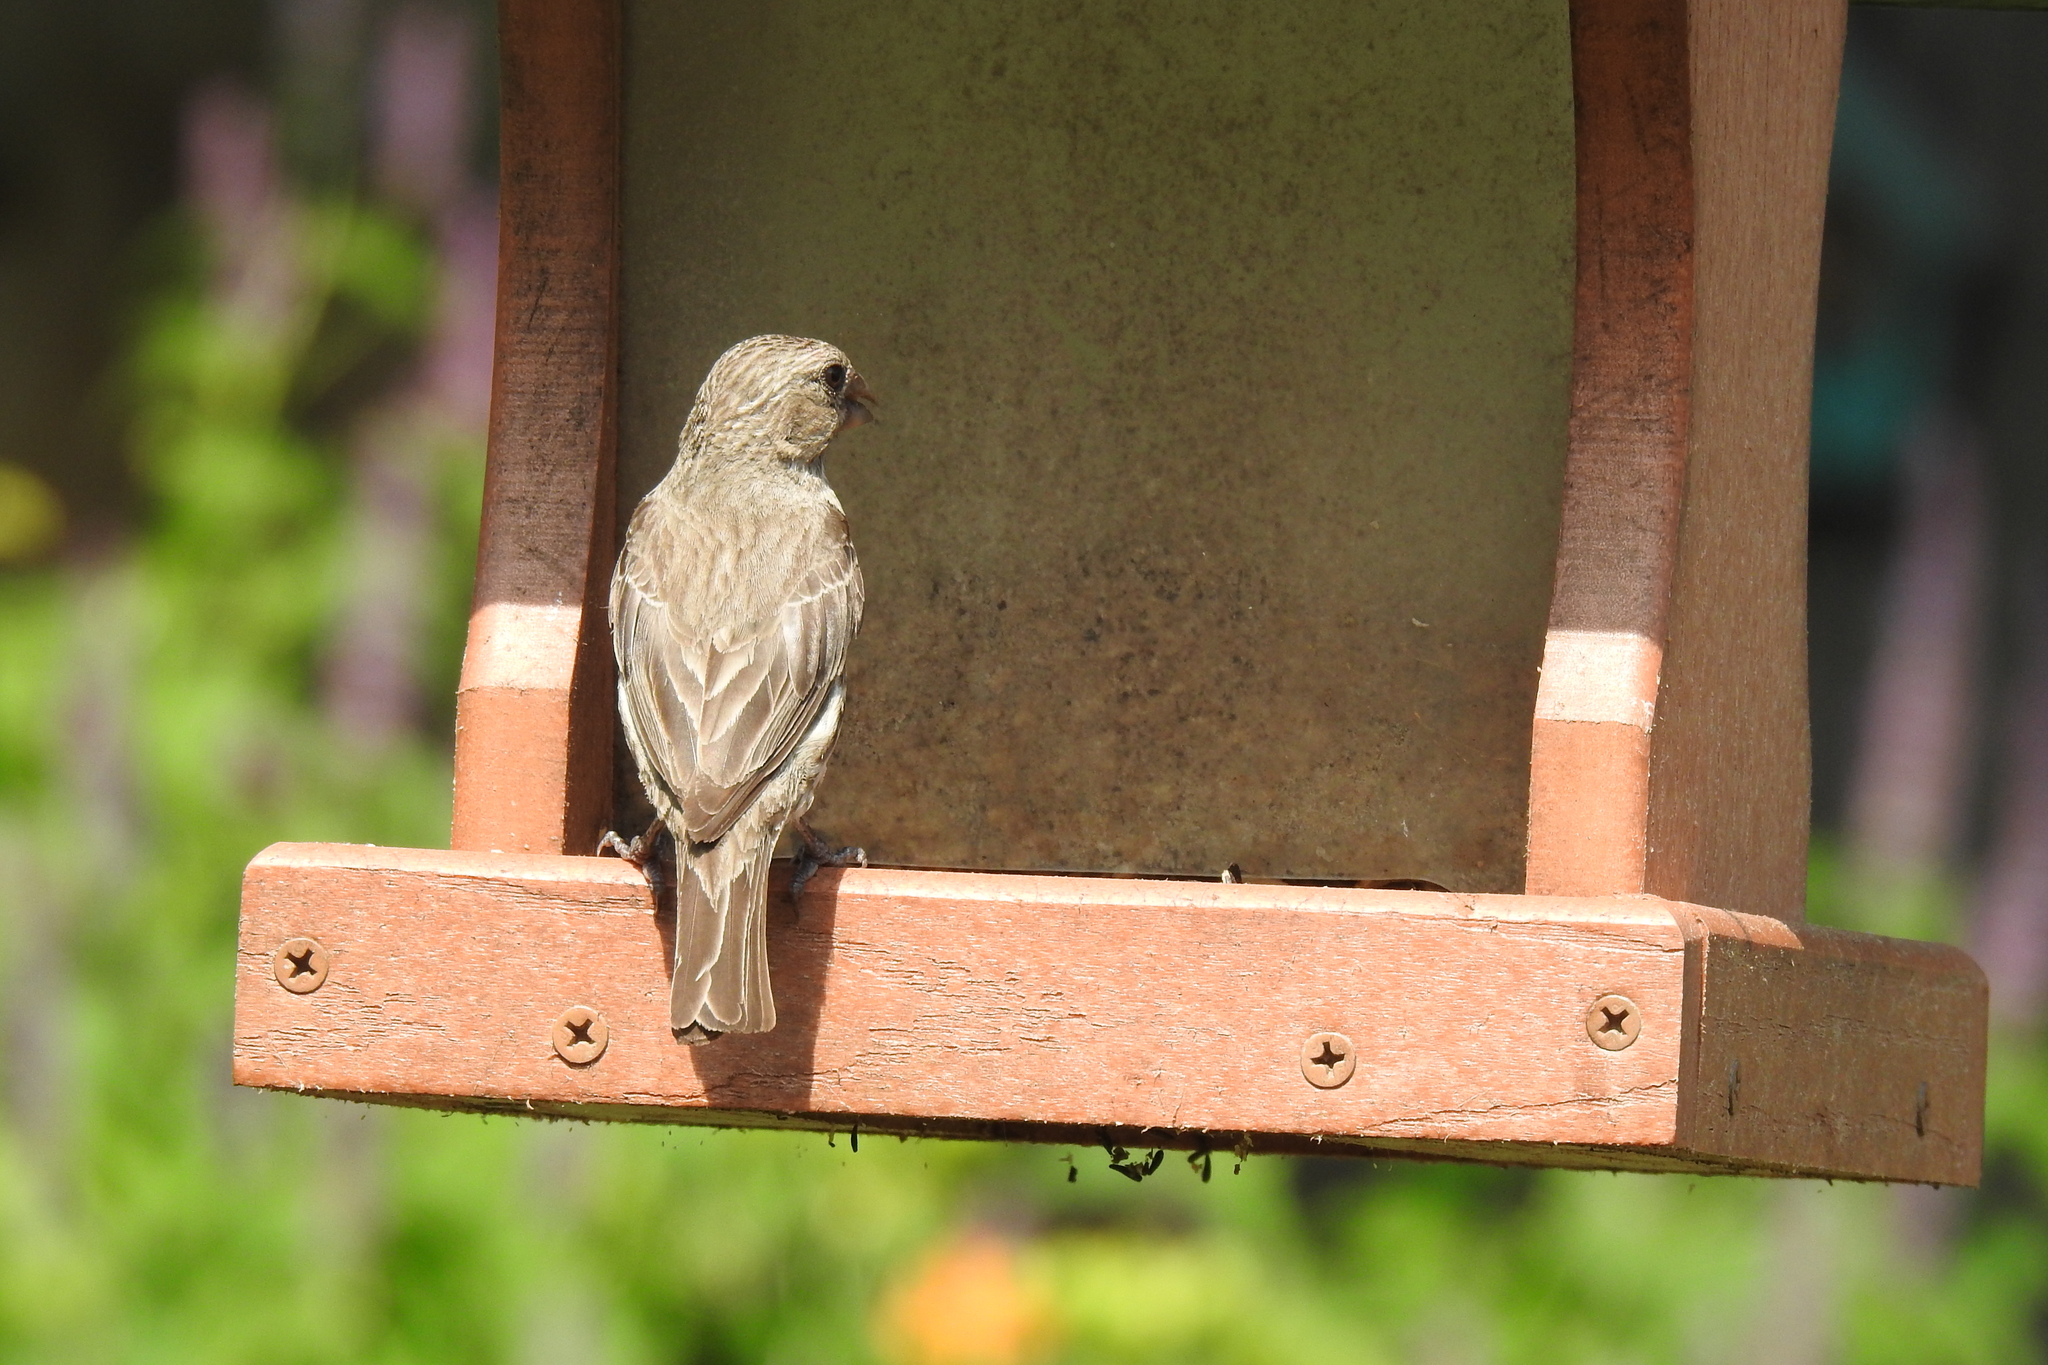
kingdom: Animalia
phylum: Chordata
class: Aves
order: Passeriformes
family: Fringillidae
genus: Haemorhous
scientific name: Haemorhous mexicanus
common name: House finch
